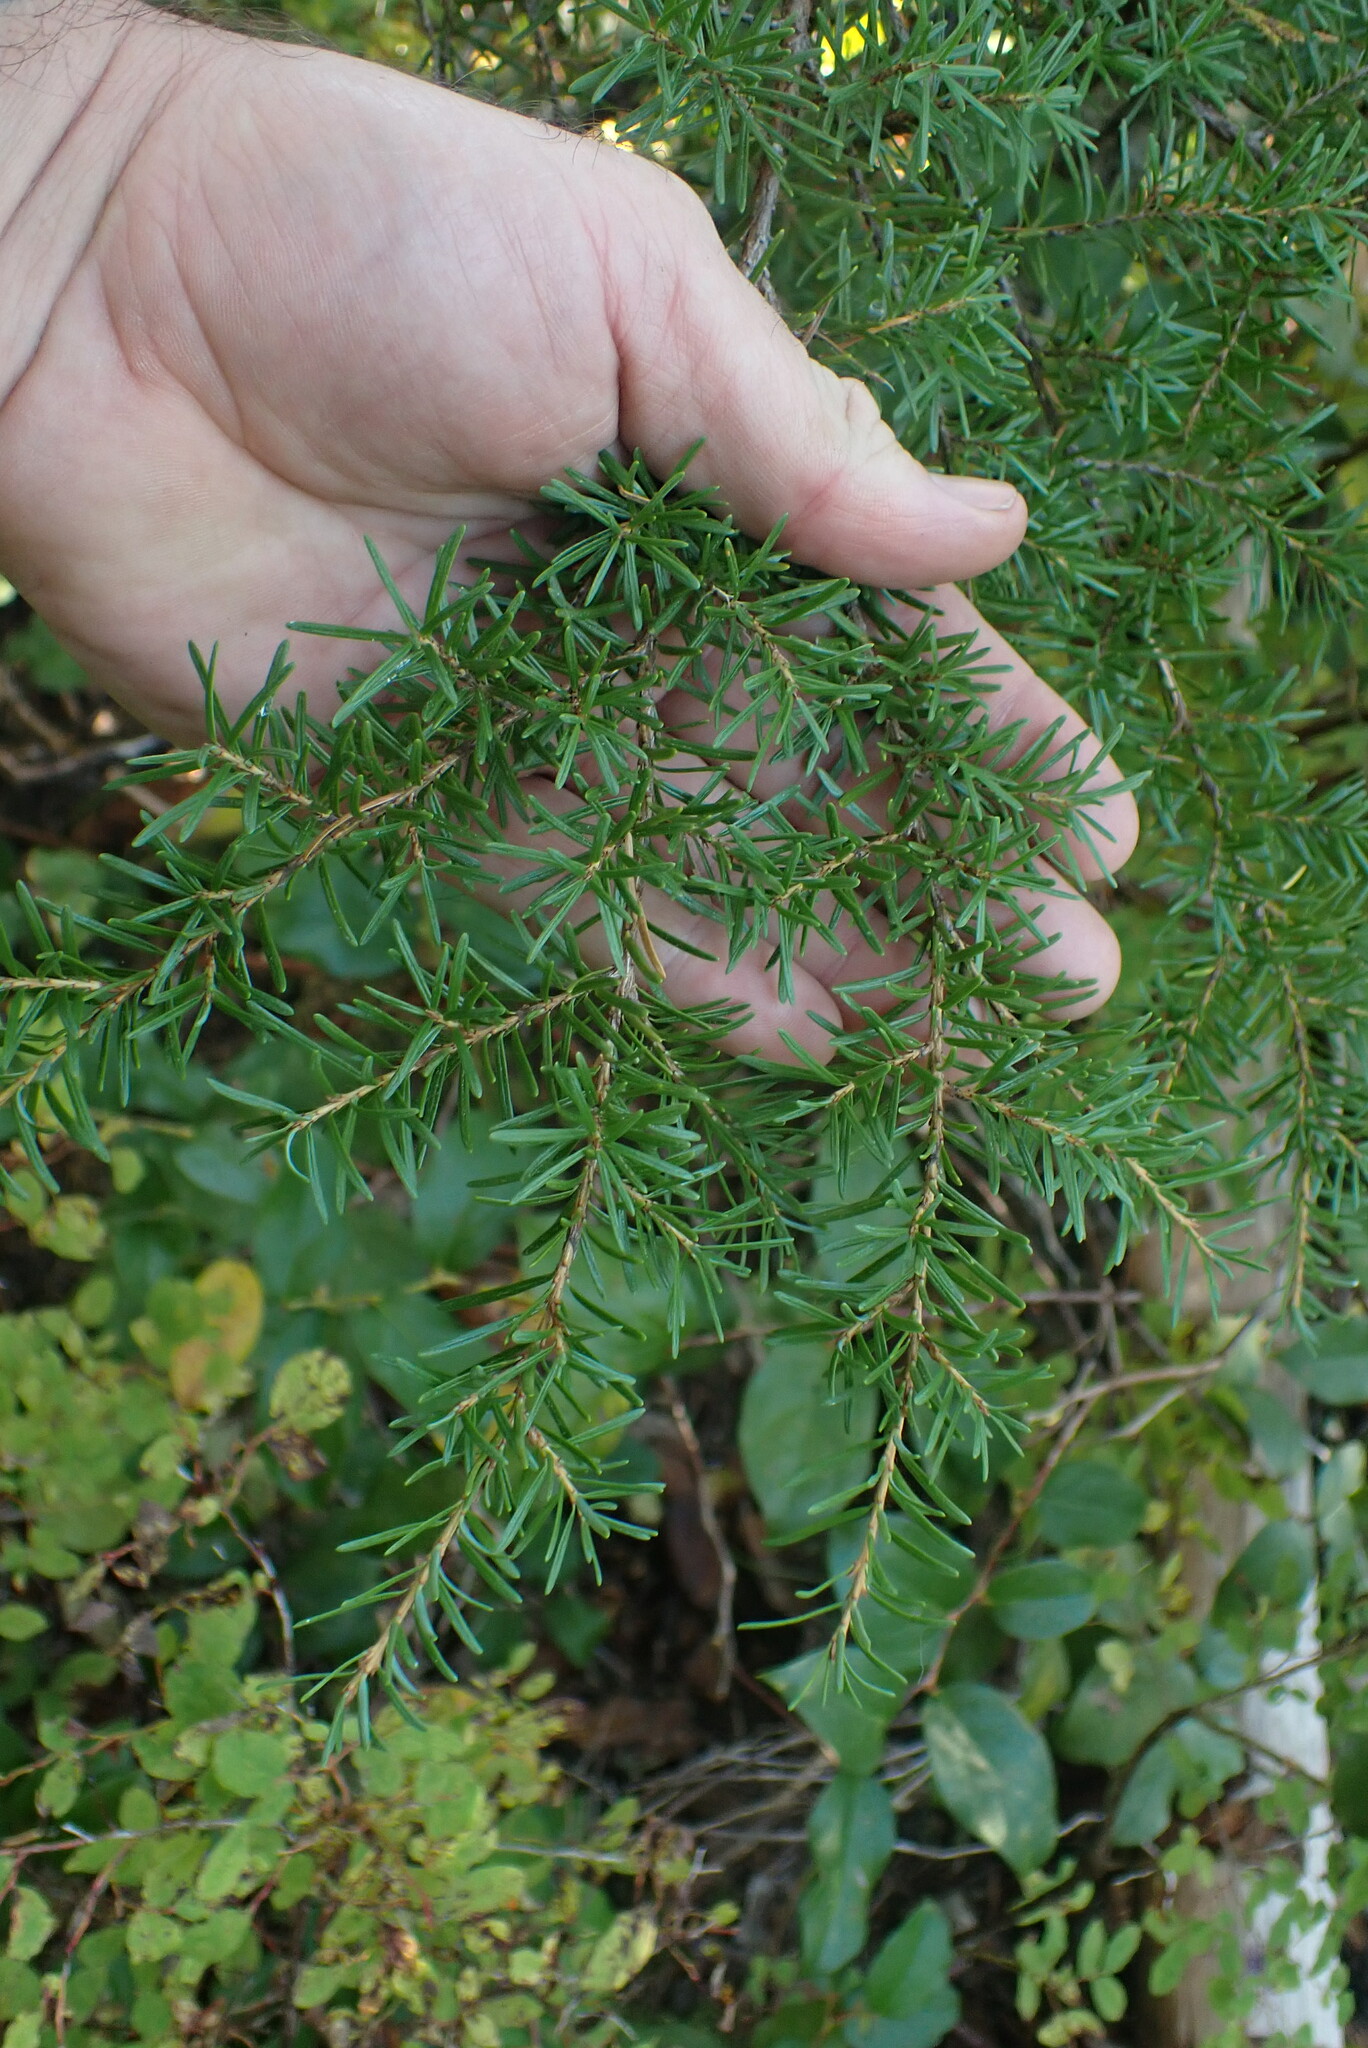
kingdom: Plantae
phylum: Tracheophyta
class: Pinopsida
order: Pinales
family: Pinaceae
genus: Tsuga
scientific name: Tsuga mertensiana
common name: Mountain hemlock
